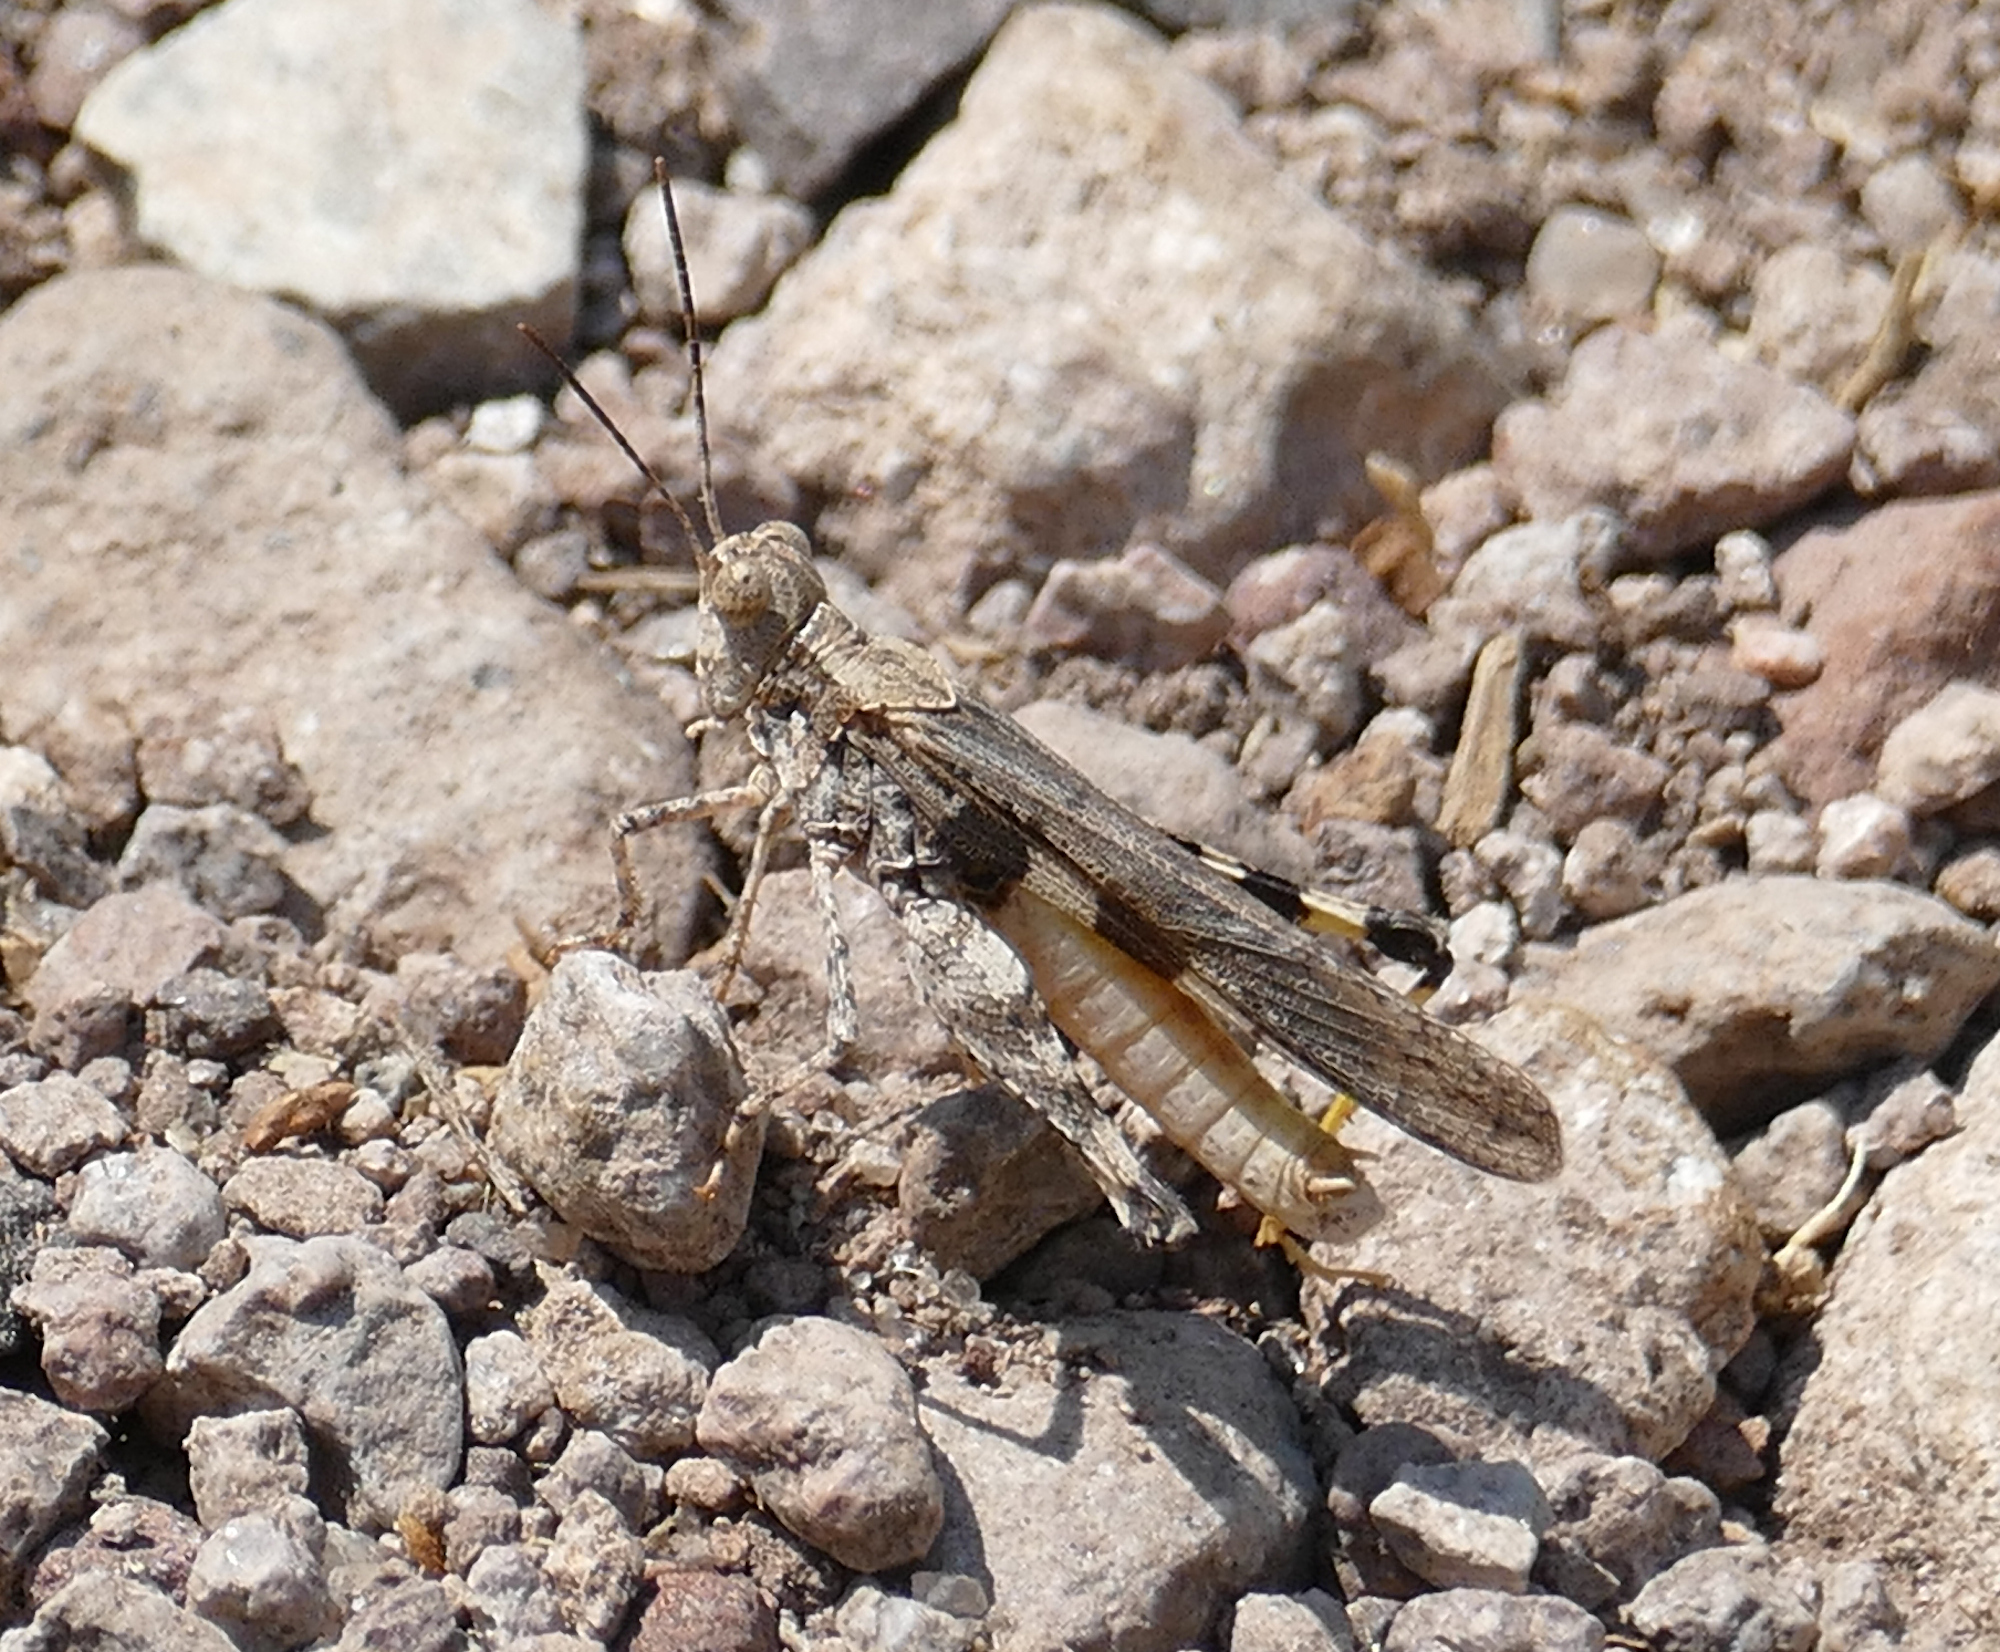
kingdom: Animalia
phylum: Arthropoda
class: Insecta
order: Orthoptera
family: Acrididae
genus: Conozoa
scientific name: Conozoa sulcifrons
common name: Groove-headed grasshopper
